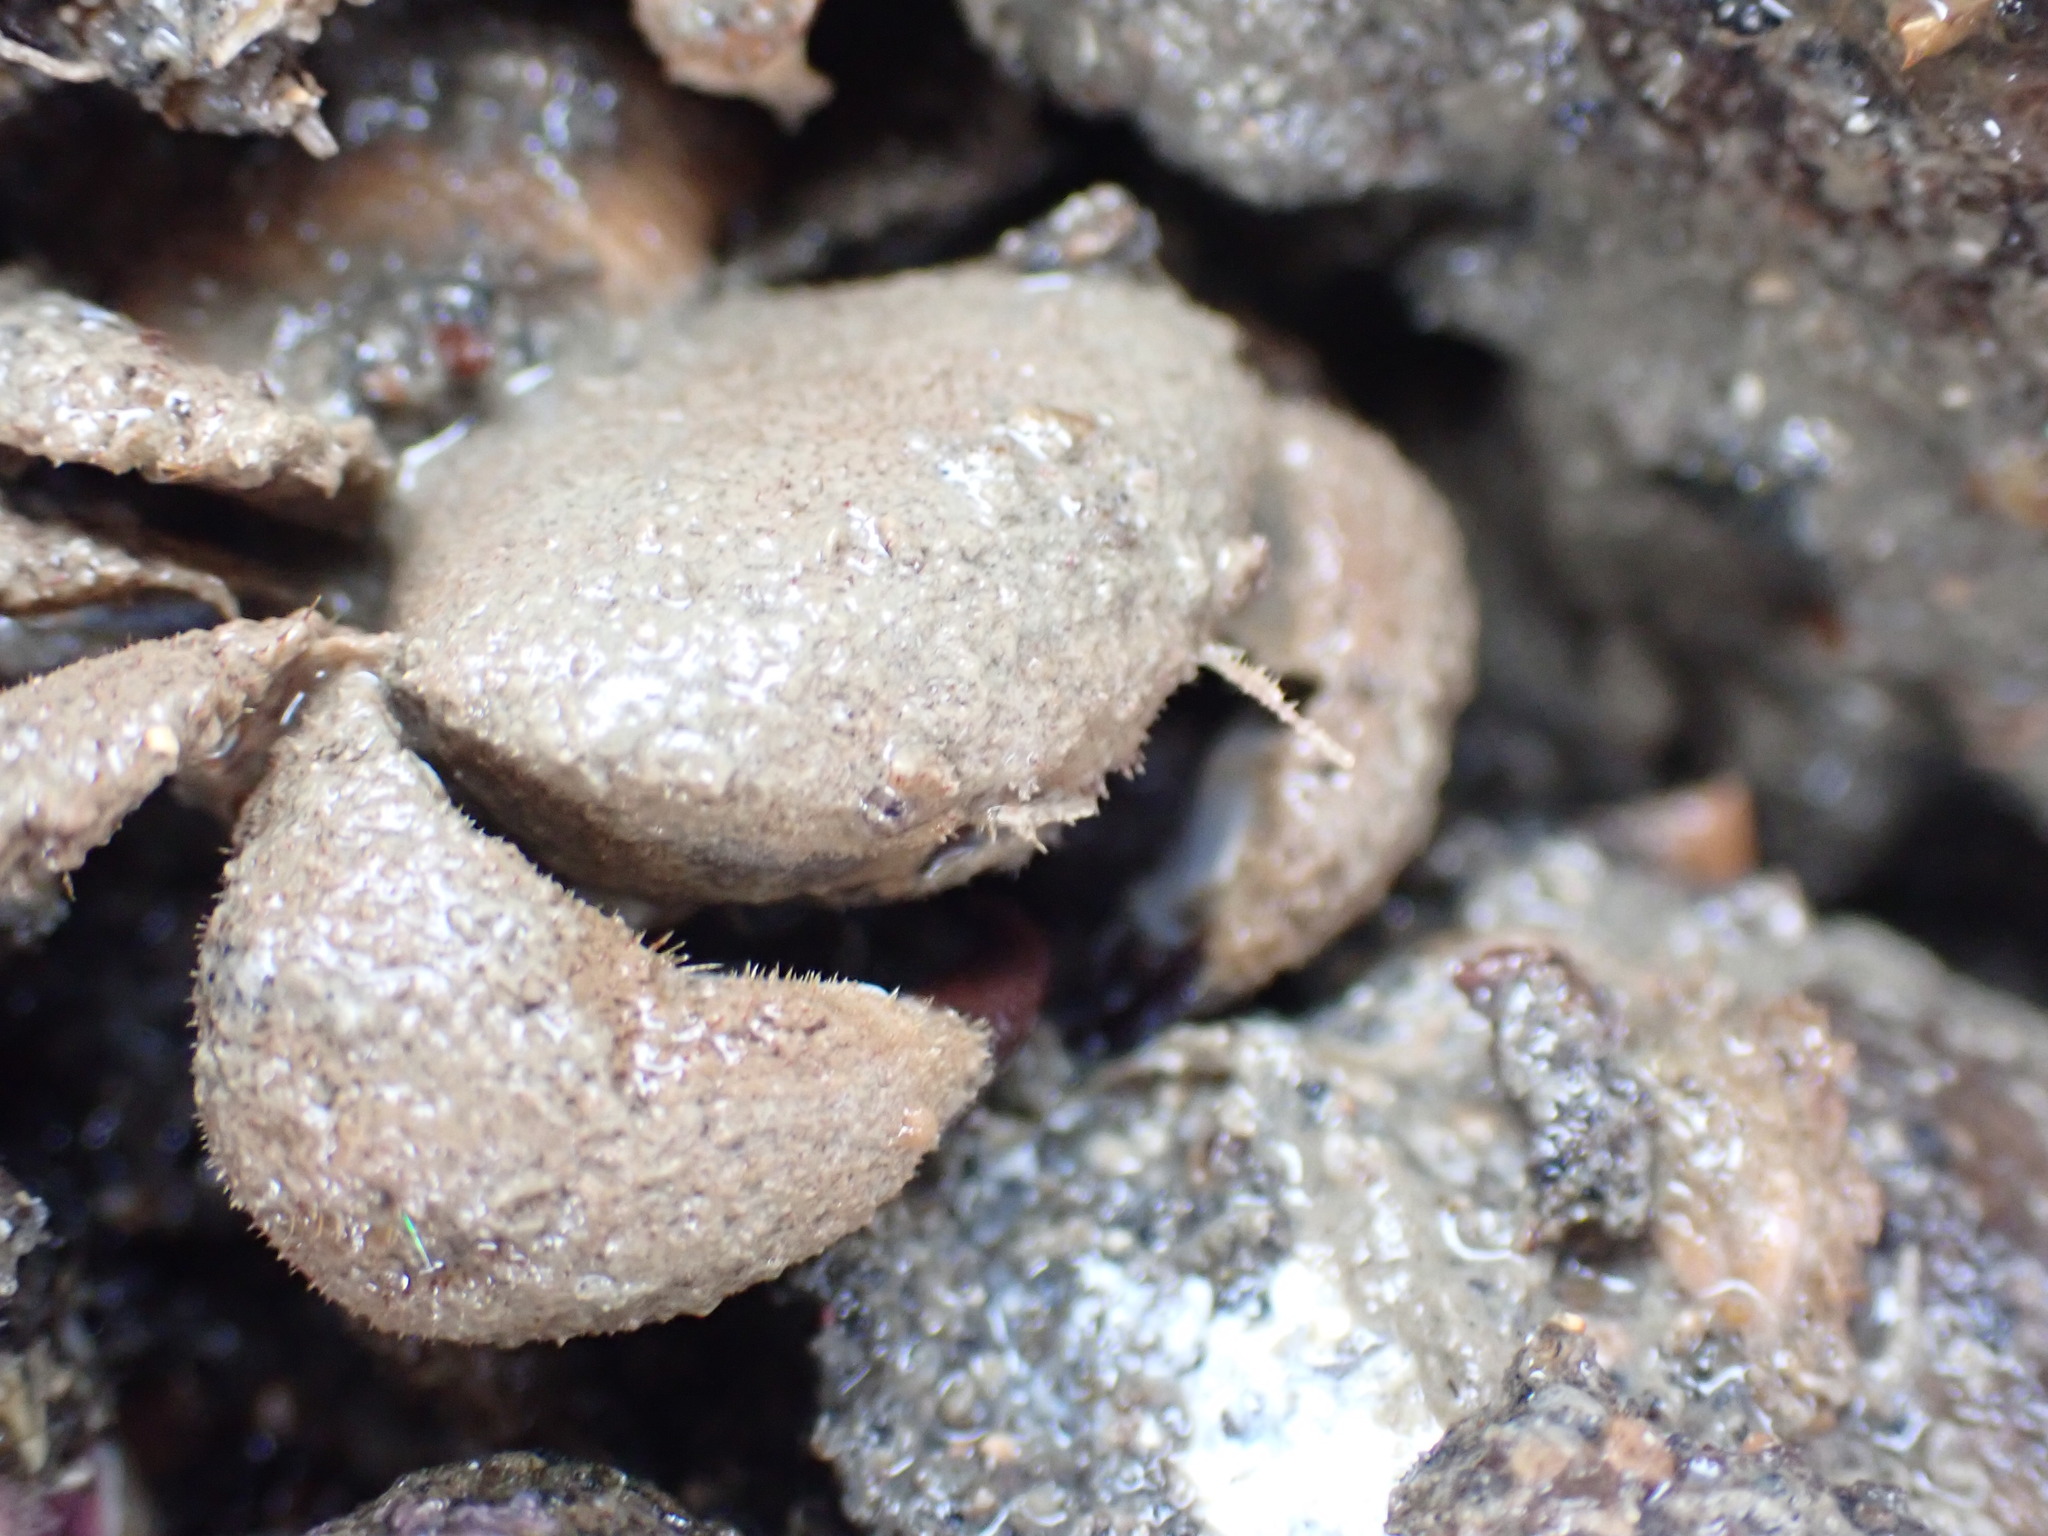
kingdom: Animalia
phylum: Arthropoda
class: Malacostraca
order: Decapoda
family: Pilumnidae
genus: Pilumnus
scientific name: Pilumnus lumpinus
